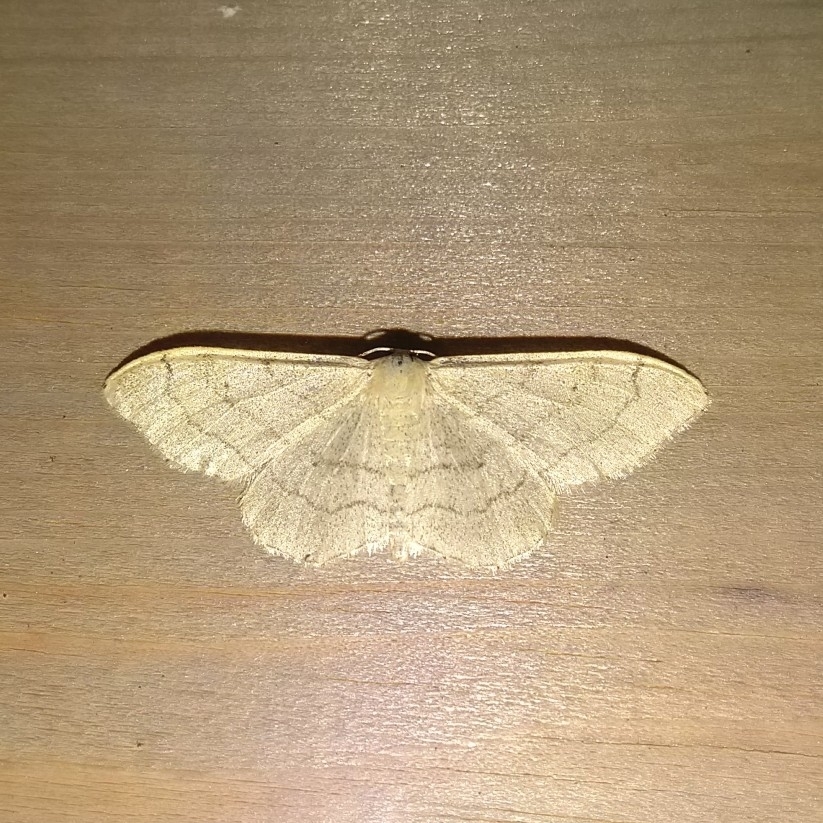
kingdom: Animalia
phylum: Arthropoda
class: Insecta
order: Lepidoptera
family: Geometridae
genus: Idaea
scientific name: Idaea aversata
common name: Riband wave
